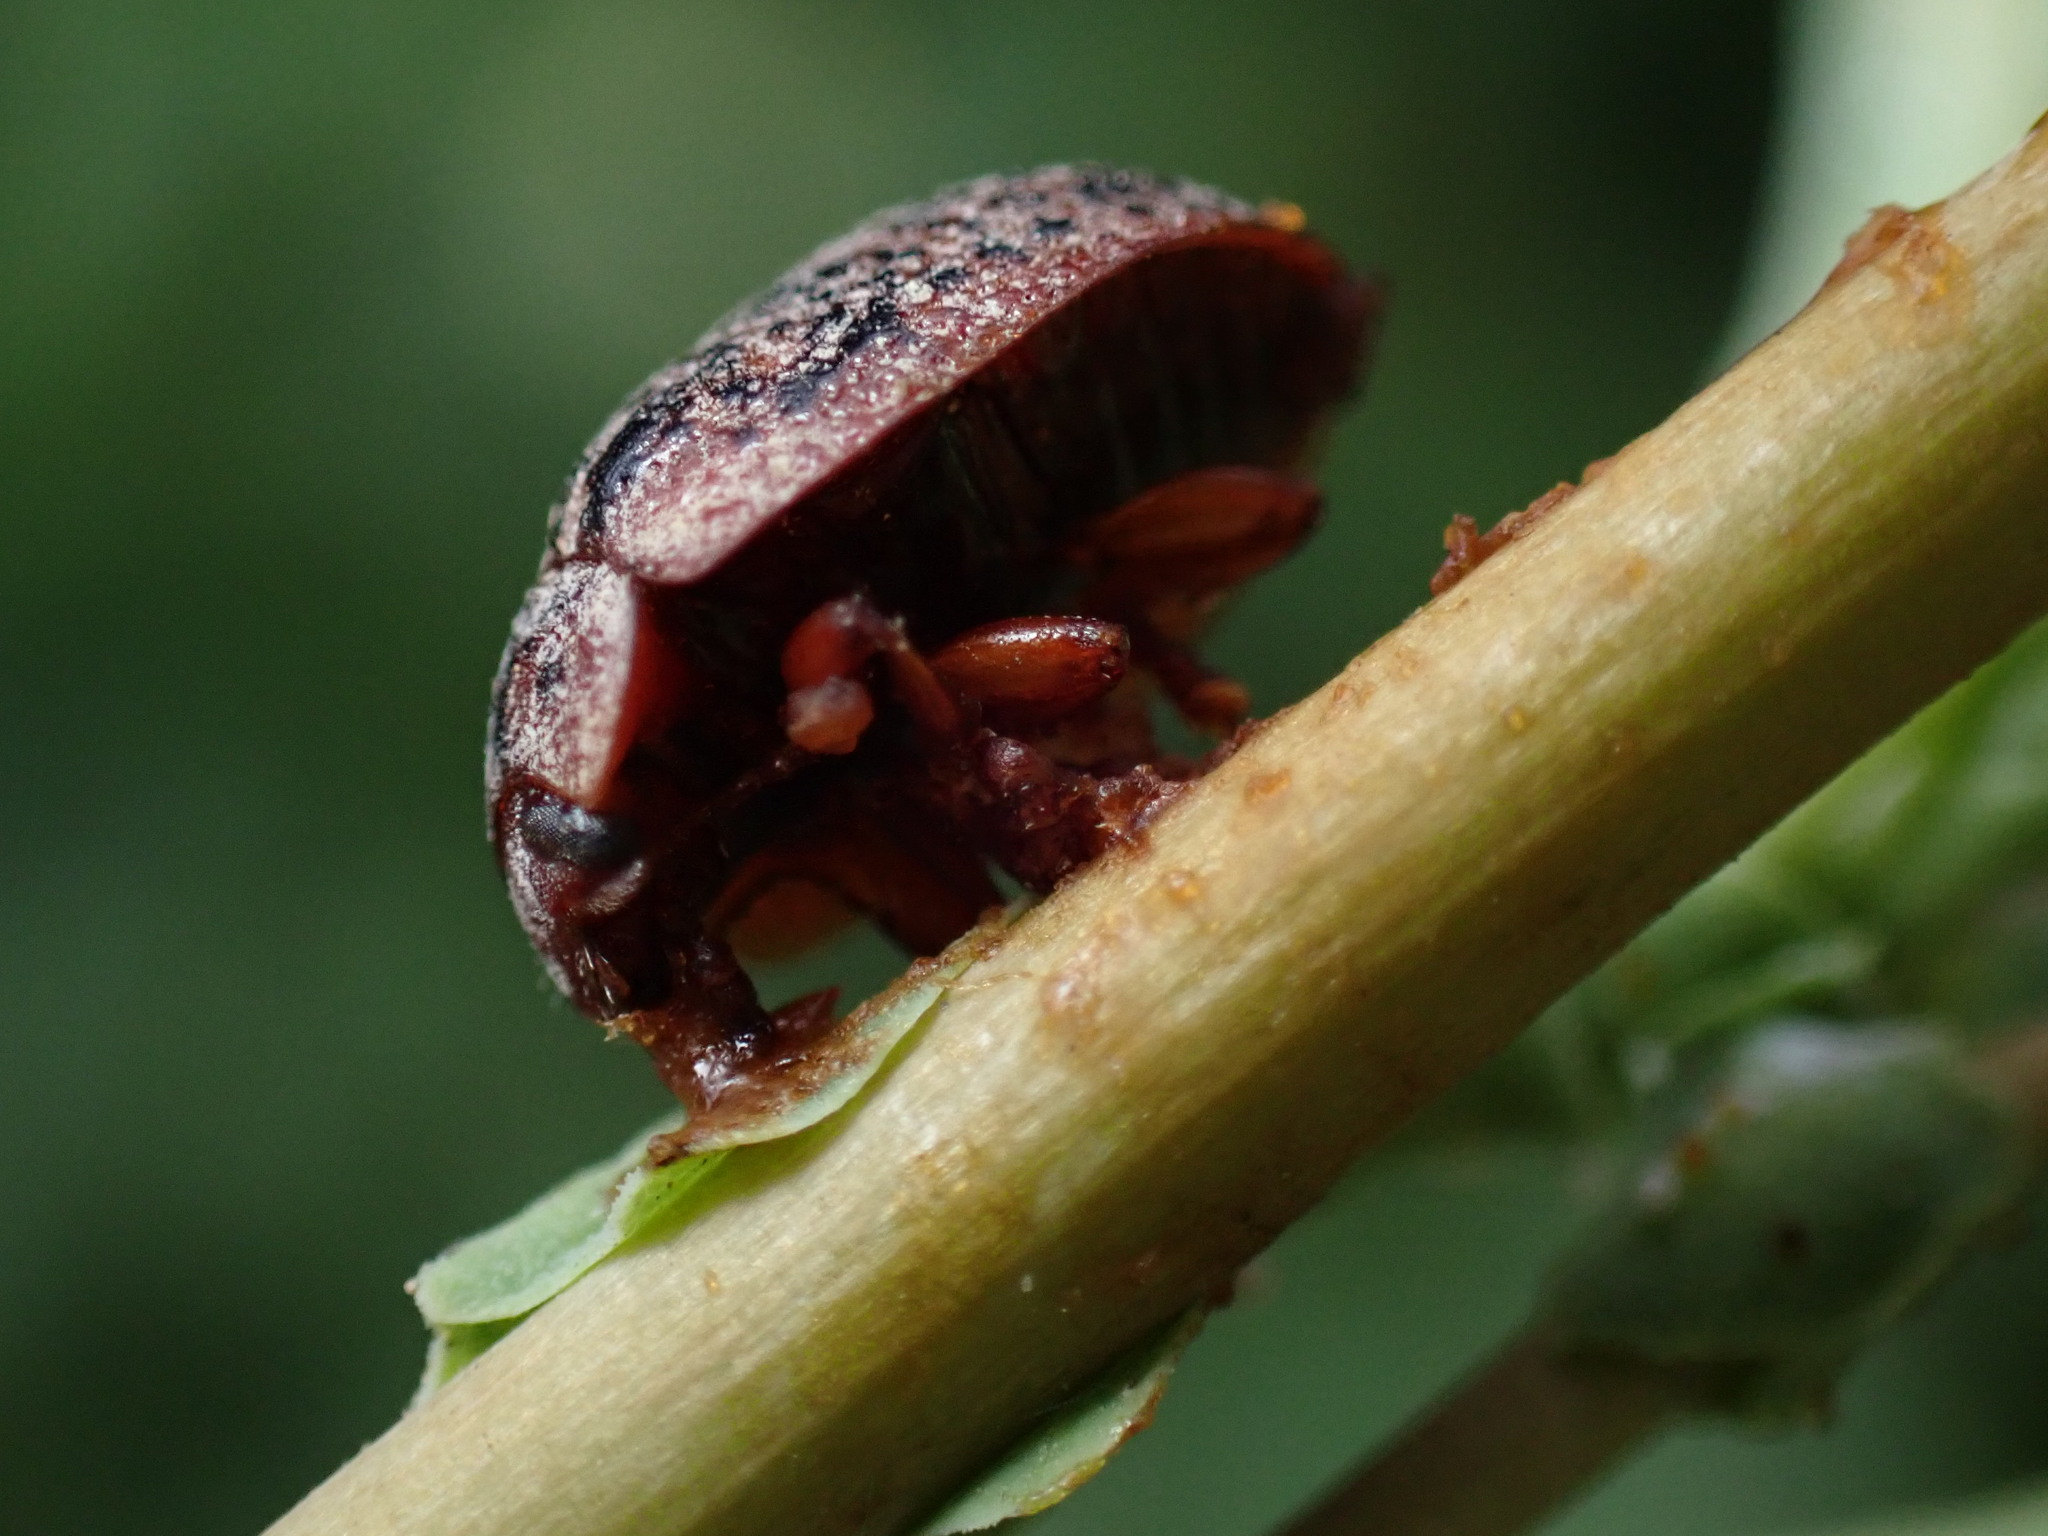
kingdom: Animalia
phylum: Arthropoda
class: Insecta
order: Coleoptera
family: Chrysomelidae
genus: Trachymela
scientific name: Trachymela sloanei
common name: Australian tortoise beetle
